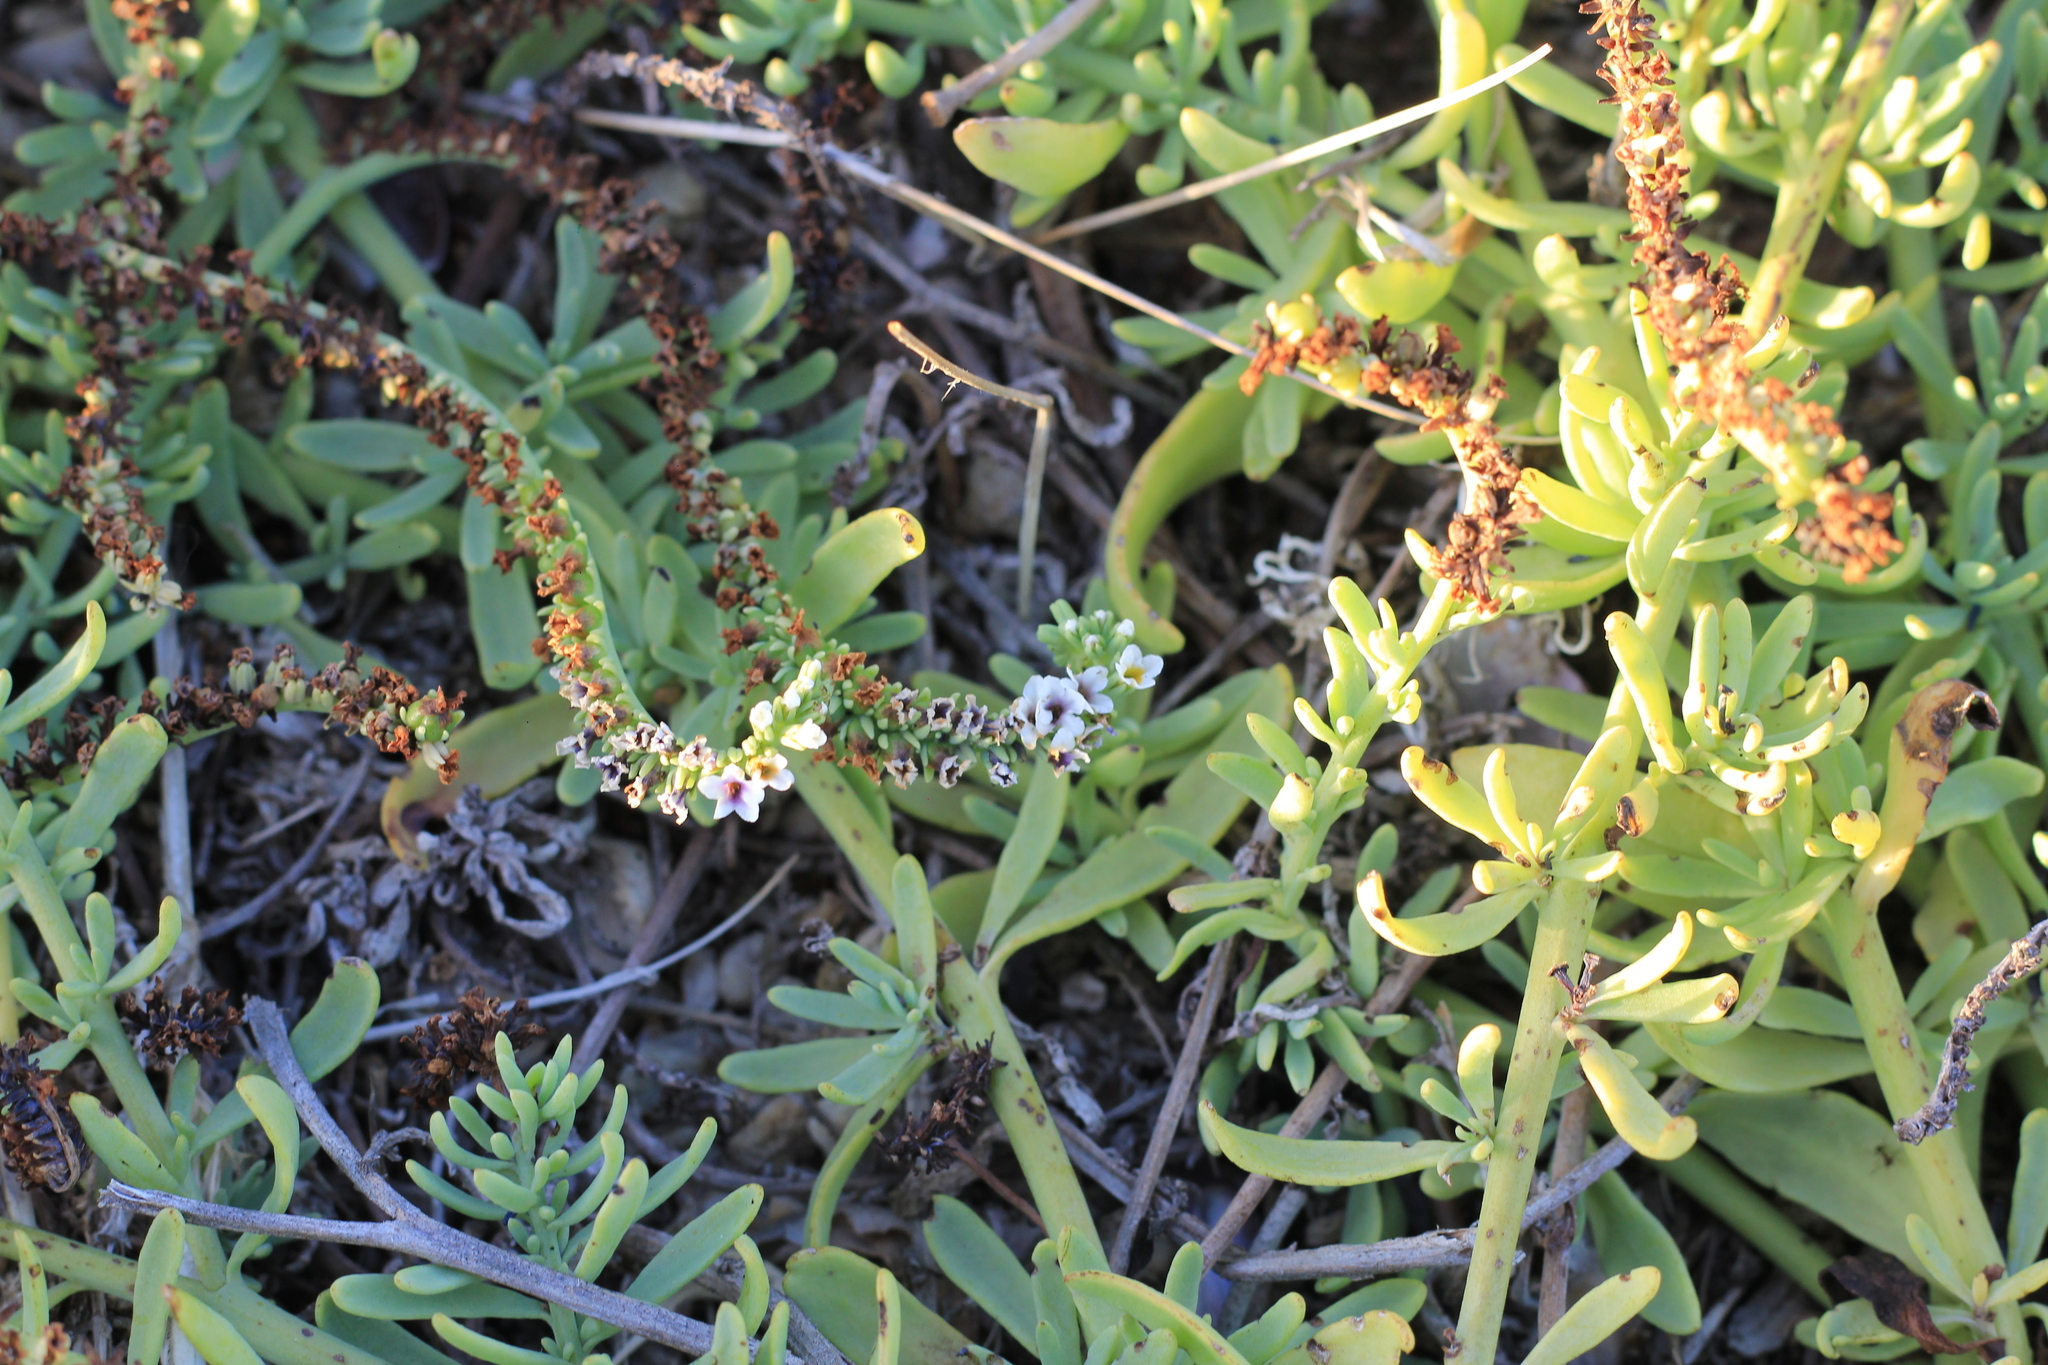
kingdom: Plantae
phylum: Tracheophyta
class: Magnoliopsida
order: Boraginales
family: Heliotropiaceae
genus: Heliotropium
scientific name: Heliotropium curassavicum
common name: Seaside heliotrope
